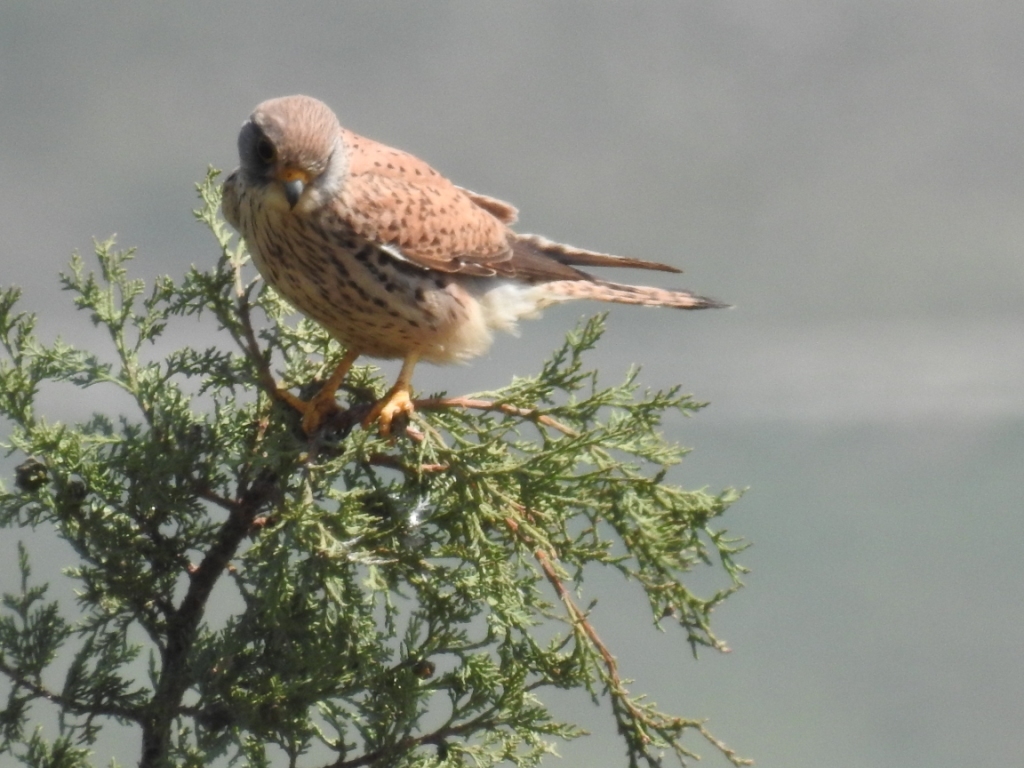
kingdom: Animalia
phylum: Chordata
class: Aves
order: Falconiformes
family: Falconidae
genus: Falco
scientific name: Falco tinnunculus
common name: Common kestrel
